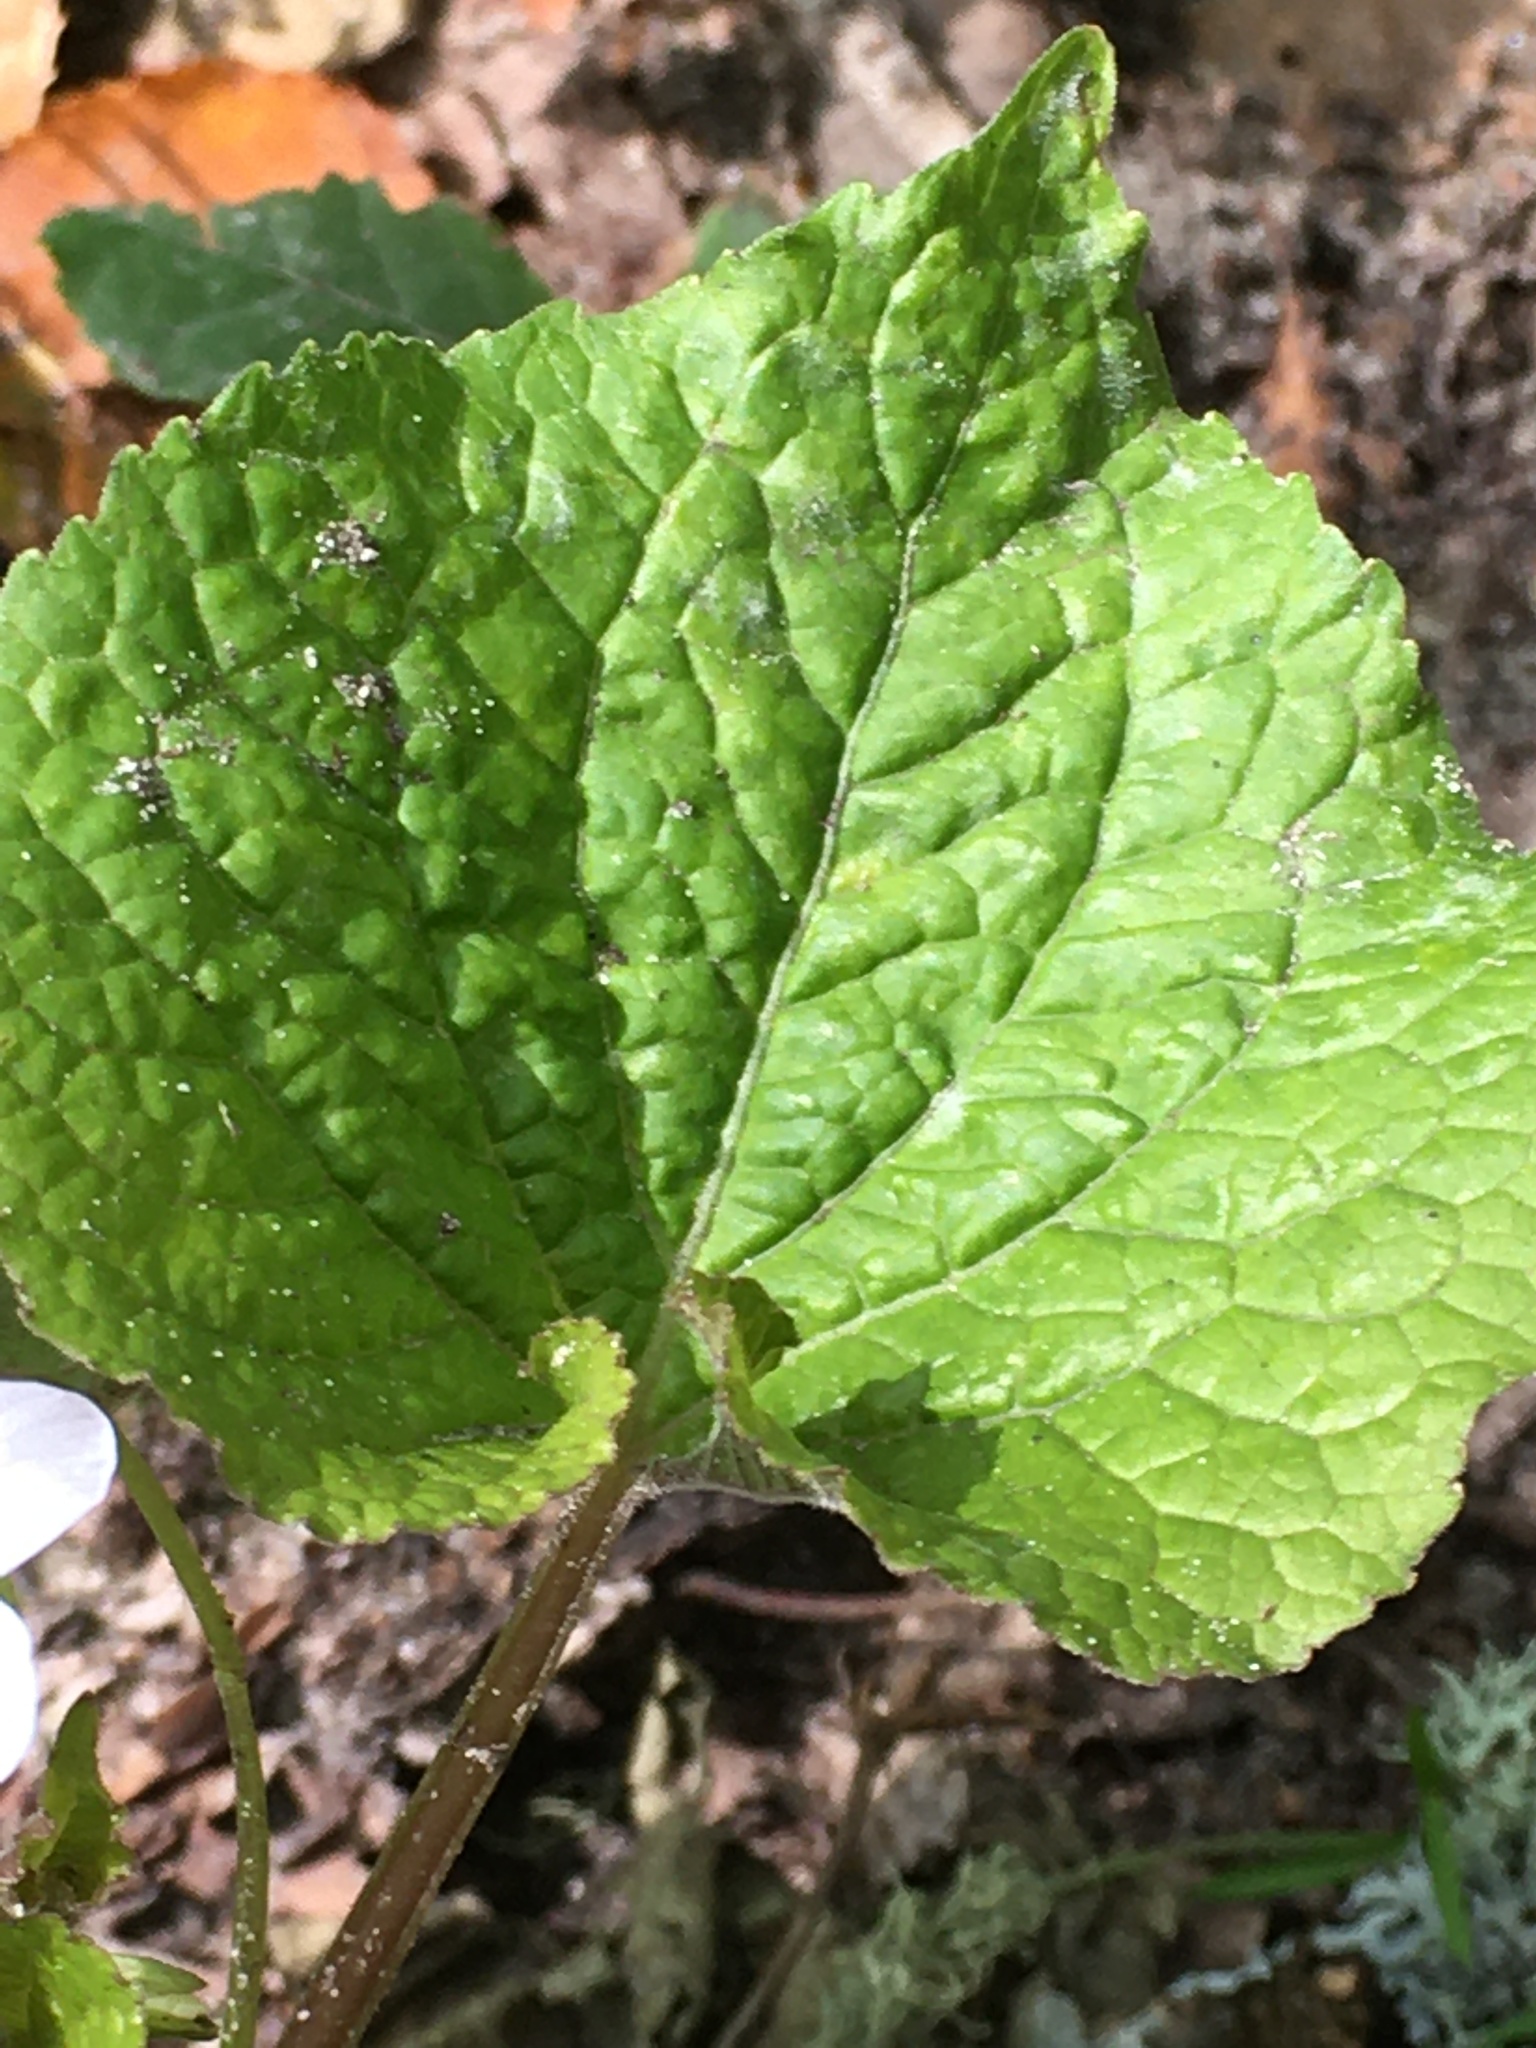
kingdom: Plantae
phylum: Tracheophyta
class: Magnoliopsida
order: Malpighiales
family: Violaceae
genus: Viola
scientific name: Viola canadensis
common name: Canada violet
